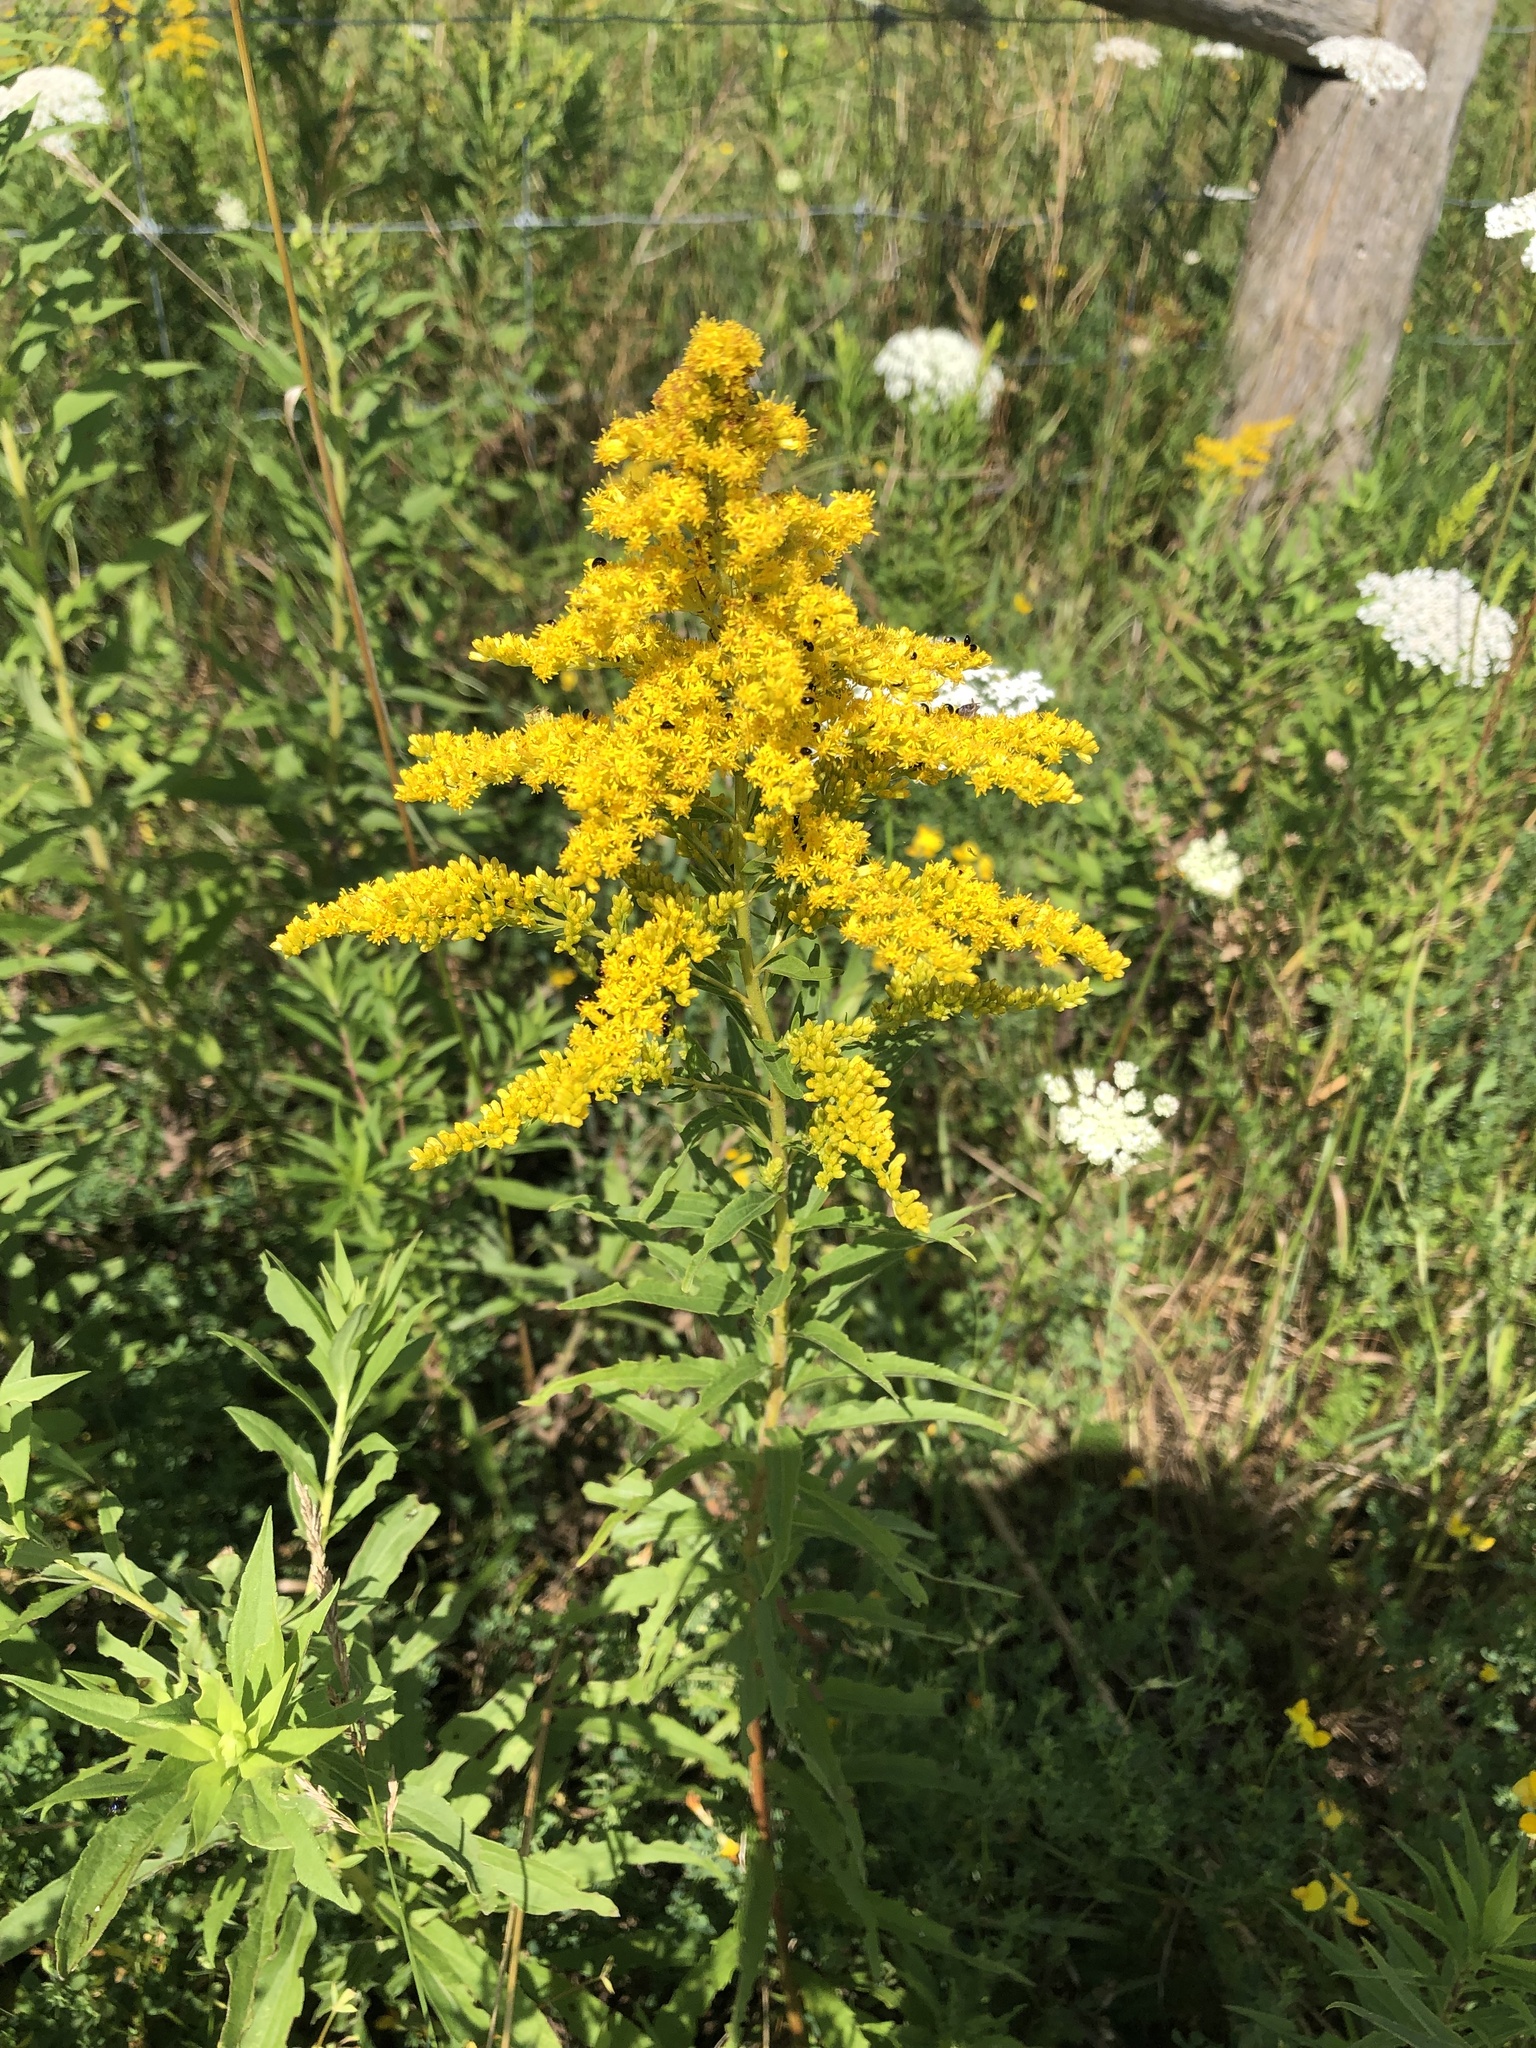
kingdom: Plantae
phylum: Tracheophyta
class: Magnoliopsida
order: Asterales
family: Asteraceae
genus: Solidago
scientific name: Solidago altissima
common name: Late goldenrod
